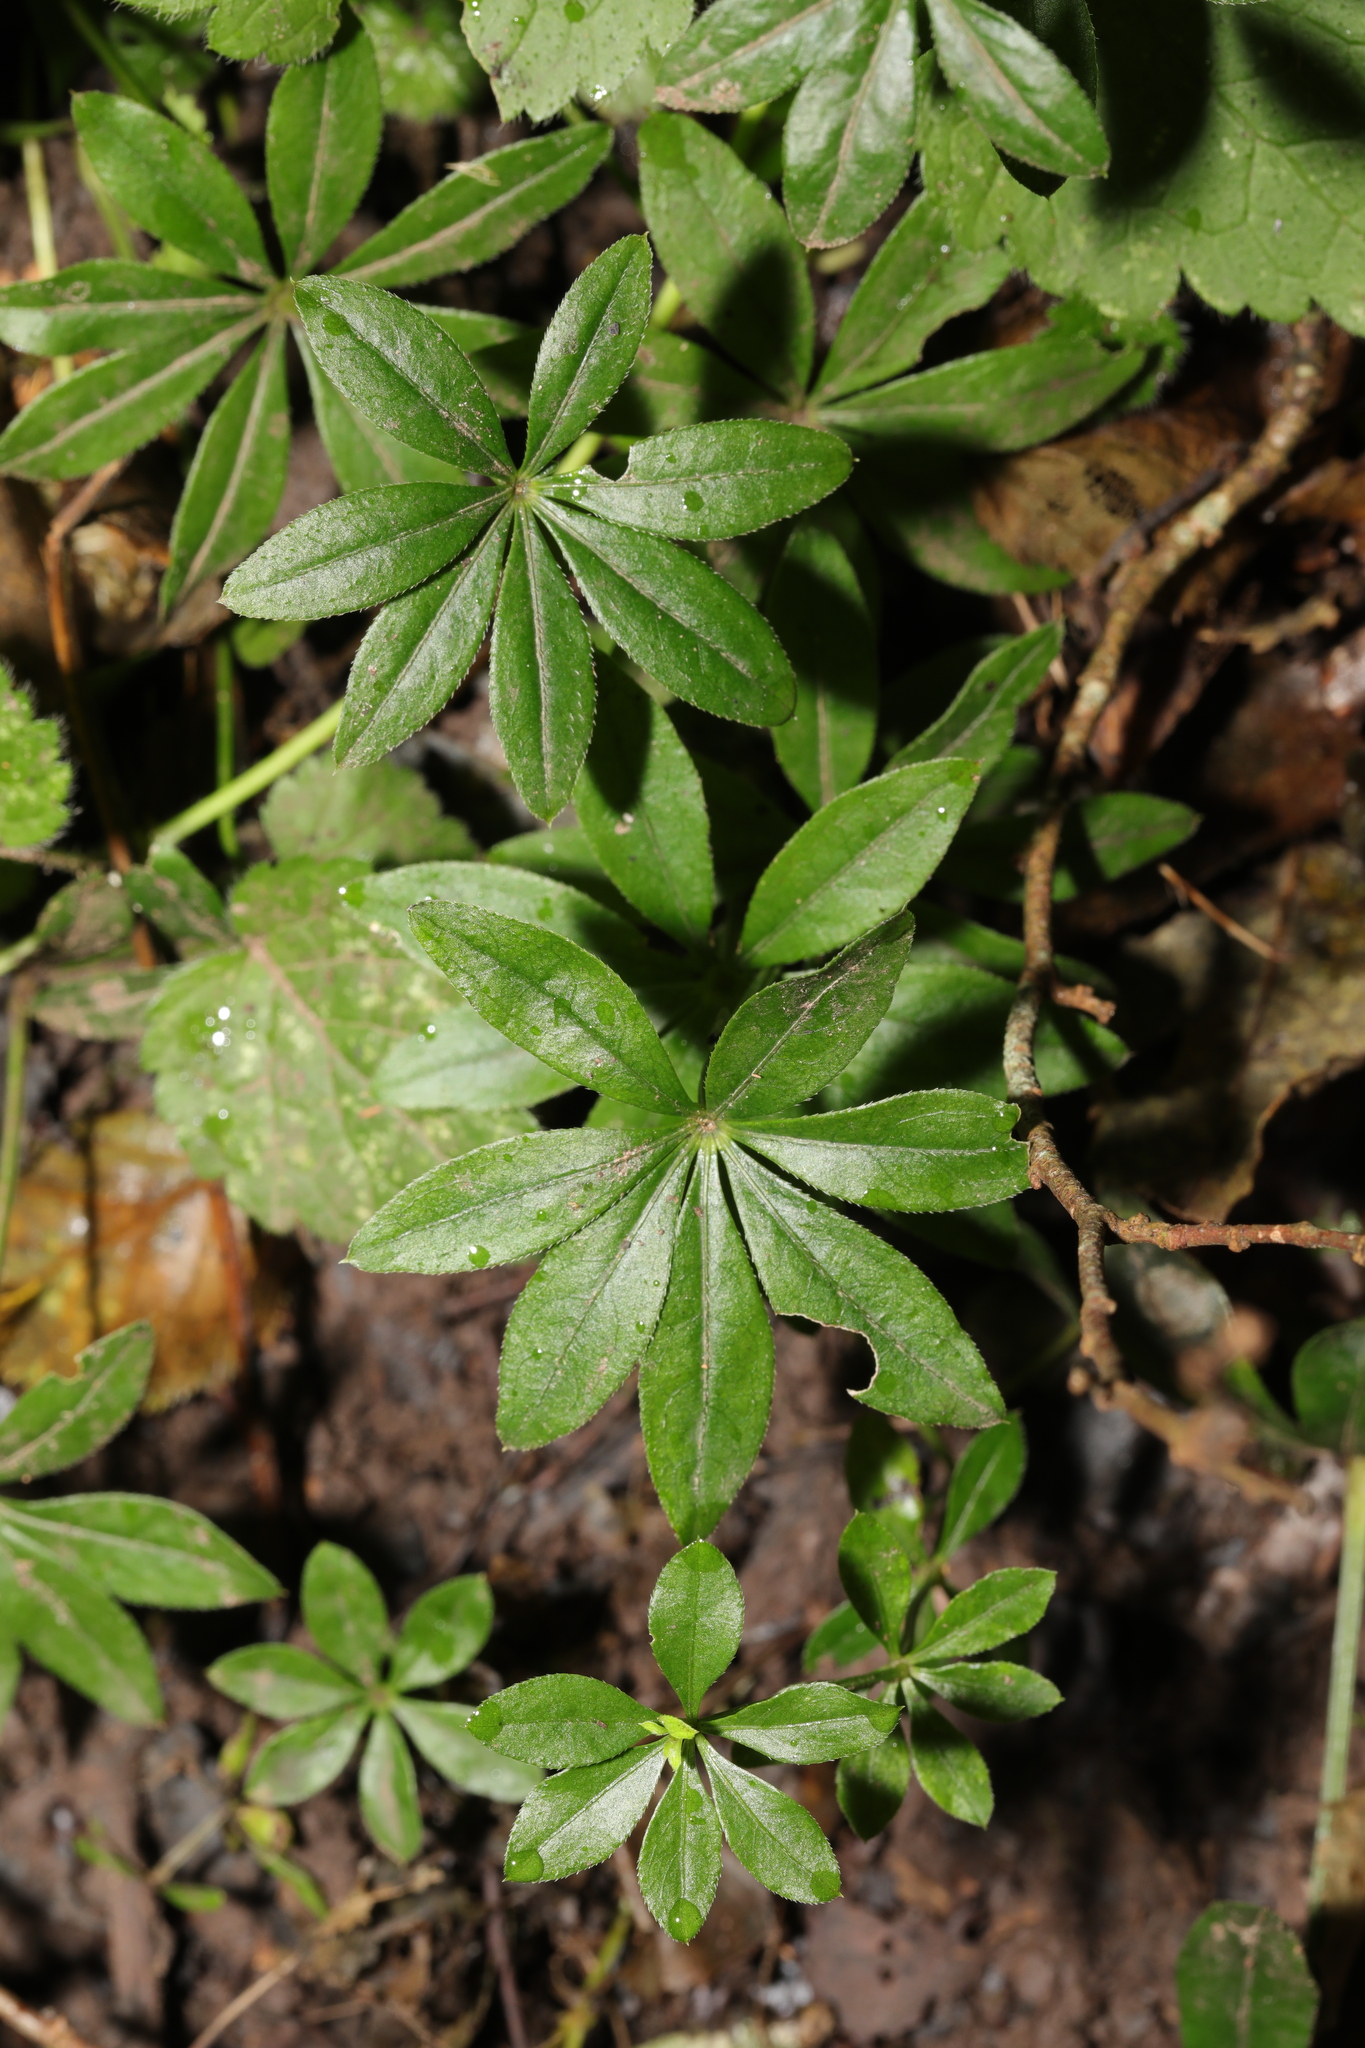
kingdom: Plantae
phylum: Tracheophyta
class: Magnoliopsida
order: Gentianales
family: Rubiaceae
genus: Galium
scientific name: Galium odoratum
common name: Sweet woodruff
